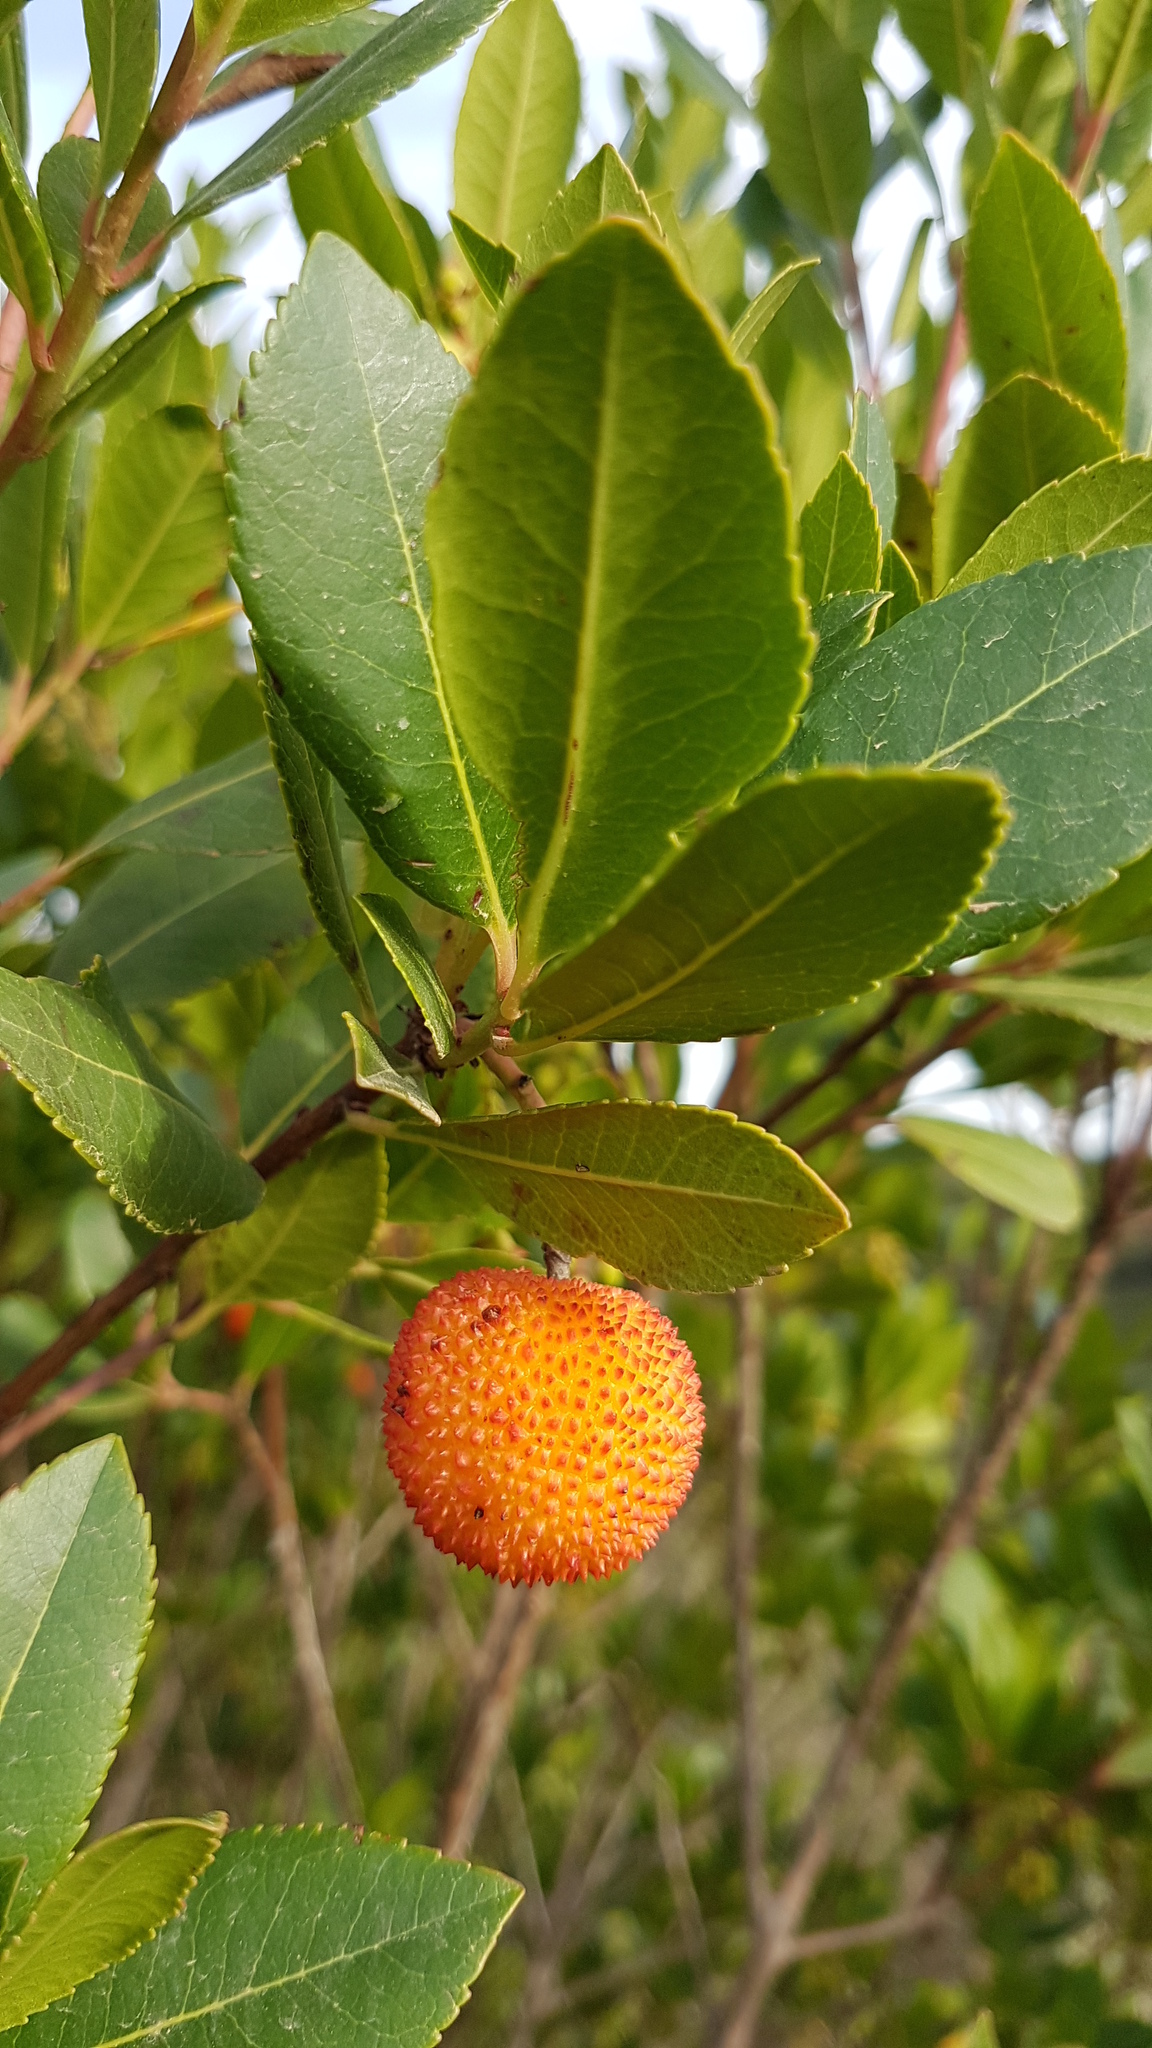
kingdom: Plantae
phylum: Tracheophyta
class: Magnoliopsida
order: Ericales
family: Ericaceae
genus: Arbutus
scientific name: Arbutus unedo
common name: Strawberry-tree
